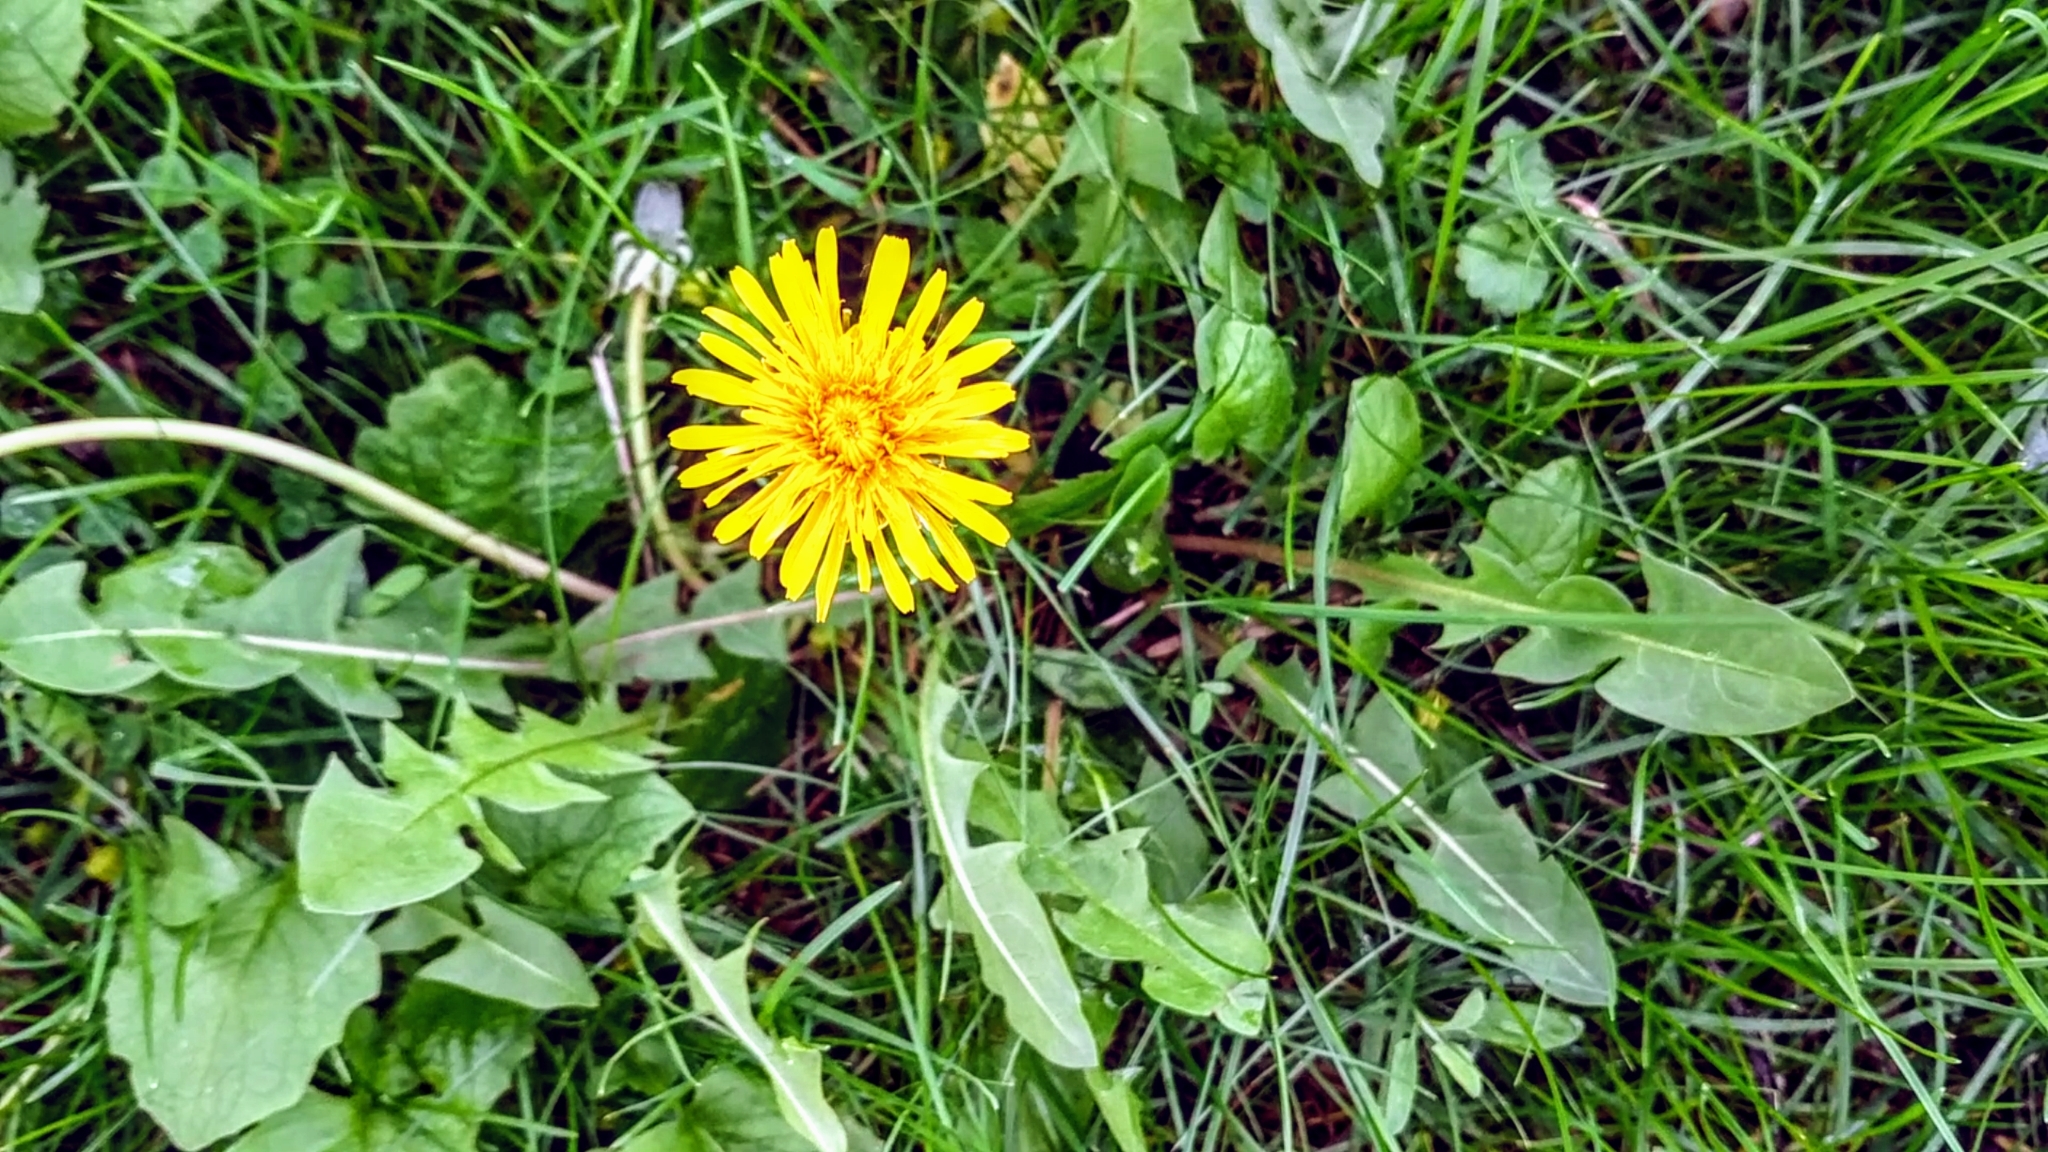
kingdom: Plantae
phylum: Tracheophyta
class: Magnoliopsida
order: Asterales
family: Asteraceae
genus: Taraxacum
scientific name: Taraxacum officinale
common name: Common dandelion
